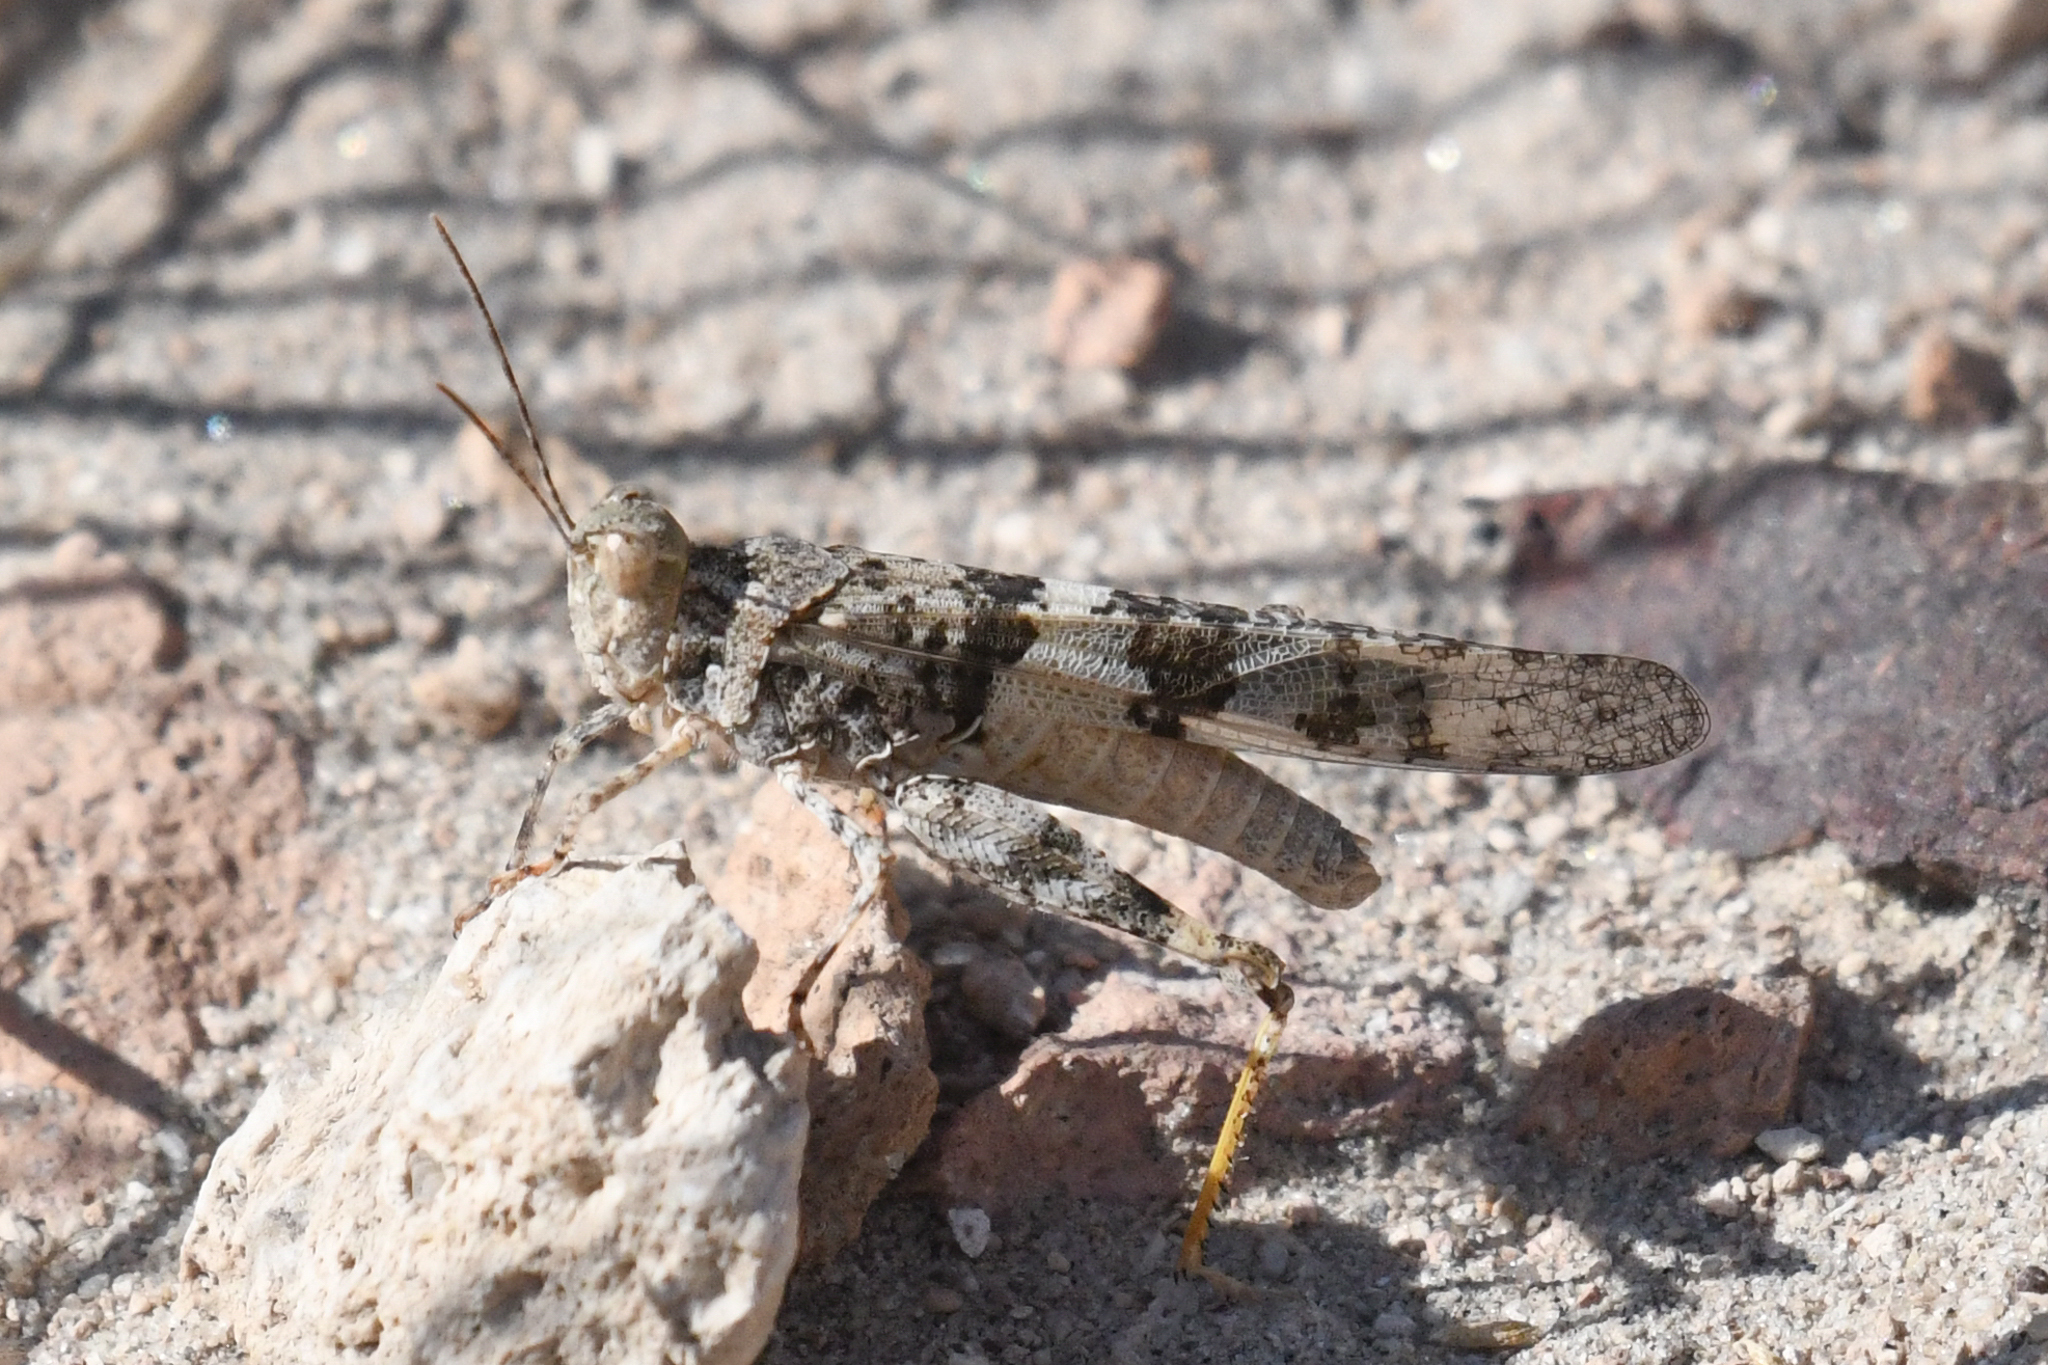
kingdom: Animalia
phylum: Arthropoda
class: Insecta
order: Orthoptera
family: Acrididae
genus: Trimerotropis
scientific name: Trimerotropis pallidipennis
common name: Pallid-winged grasshopper
